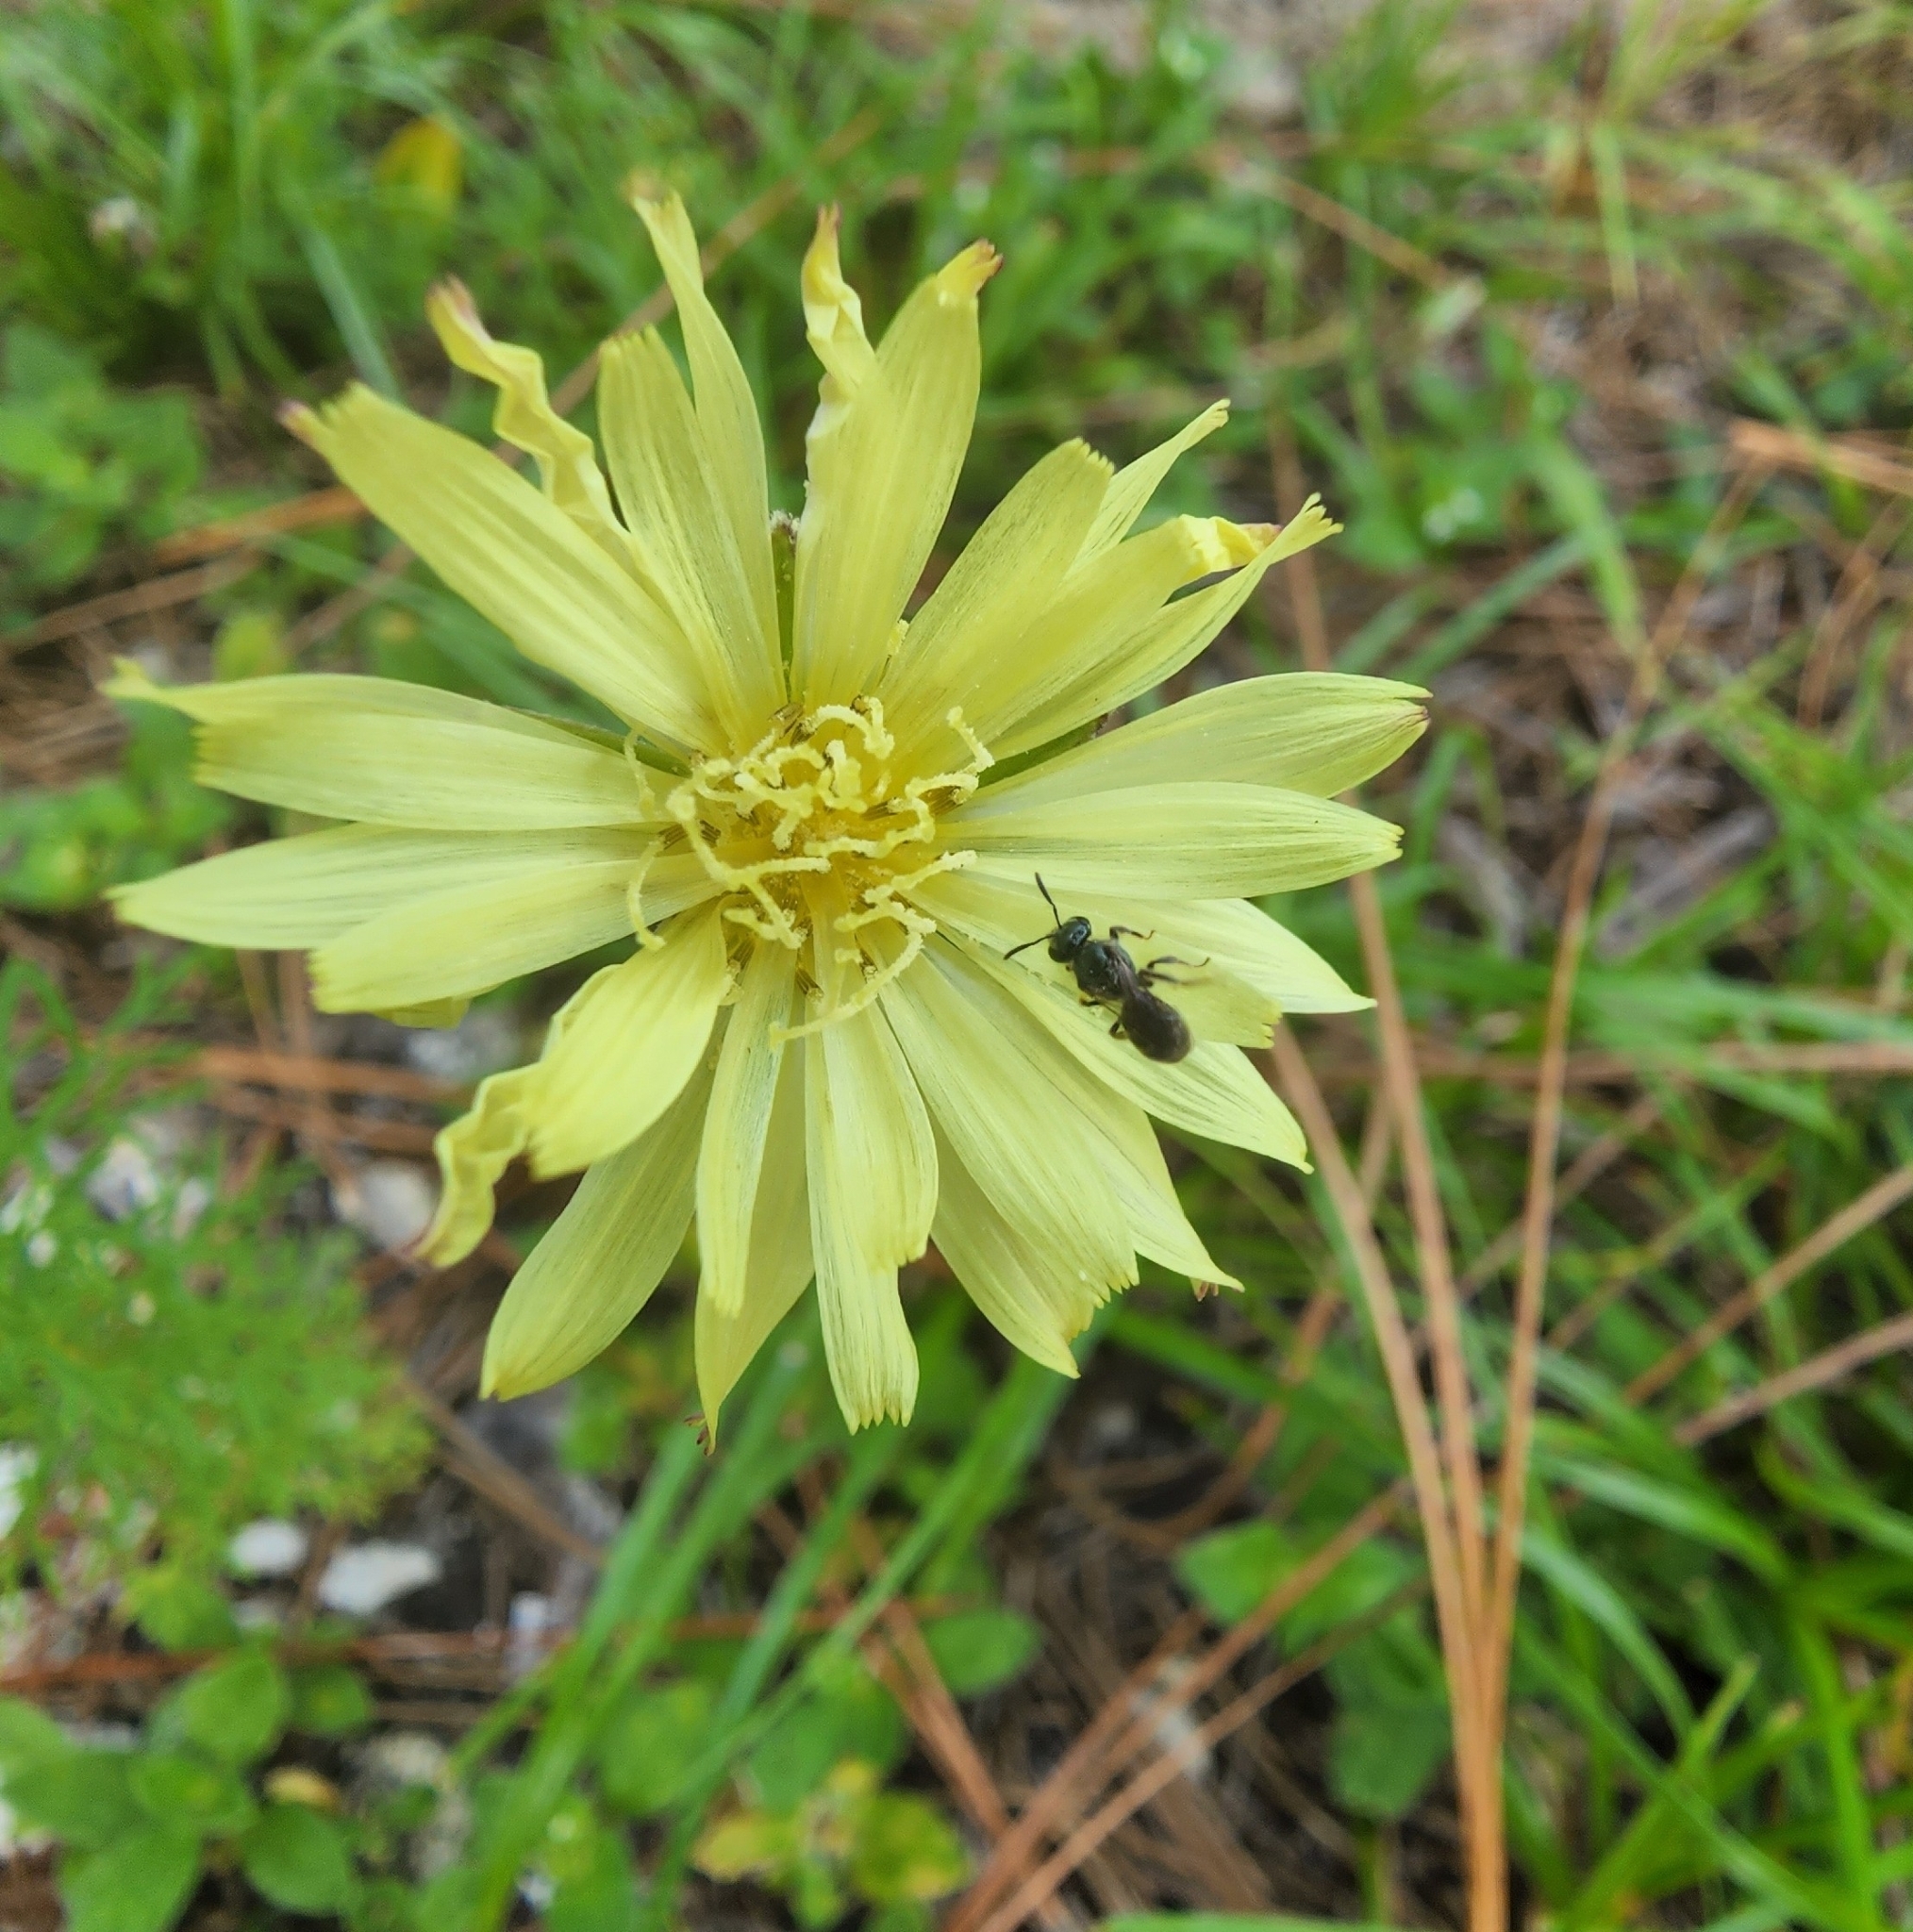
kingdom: Plantae
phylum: Tracheophyta
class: Magnoliopsida
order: Asterales
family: Asteraceae
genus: Pyrrhopappus
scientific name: Pyrrhopappus carolinianus
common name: Carolina desert-chicory
